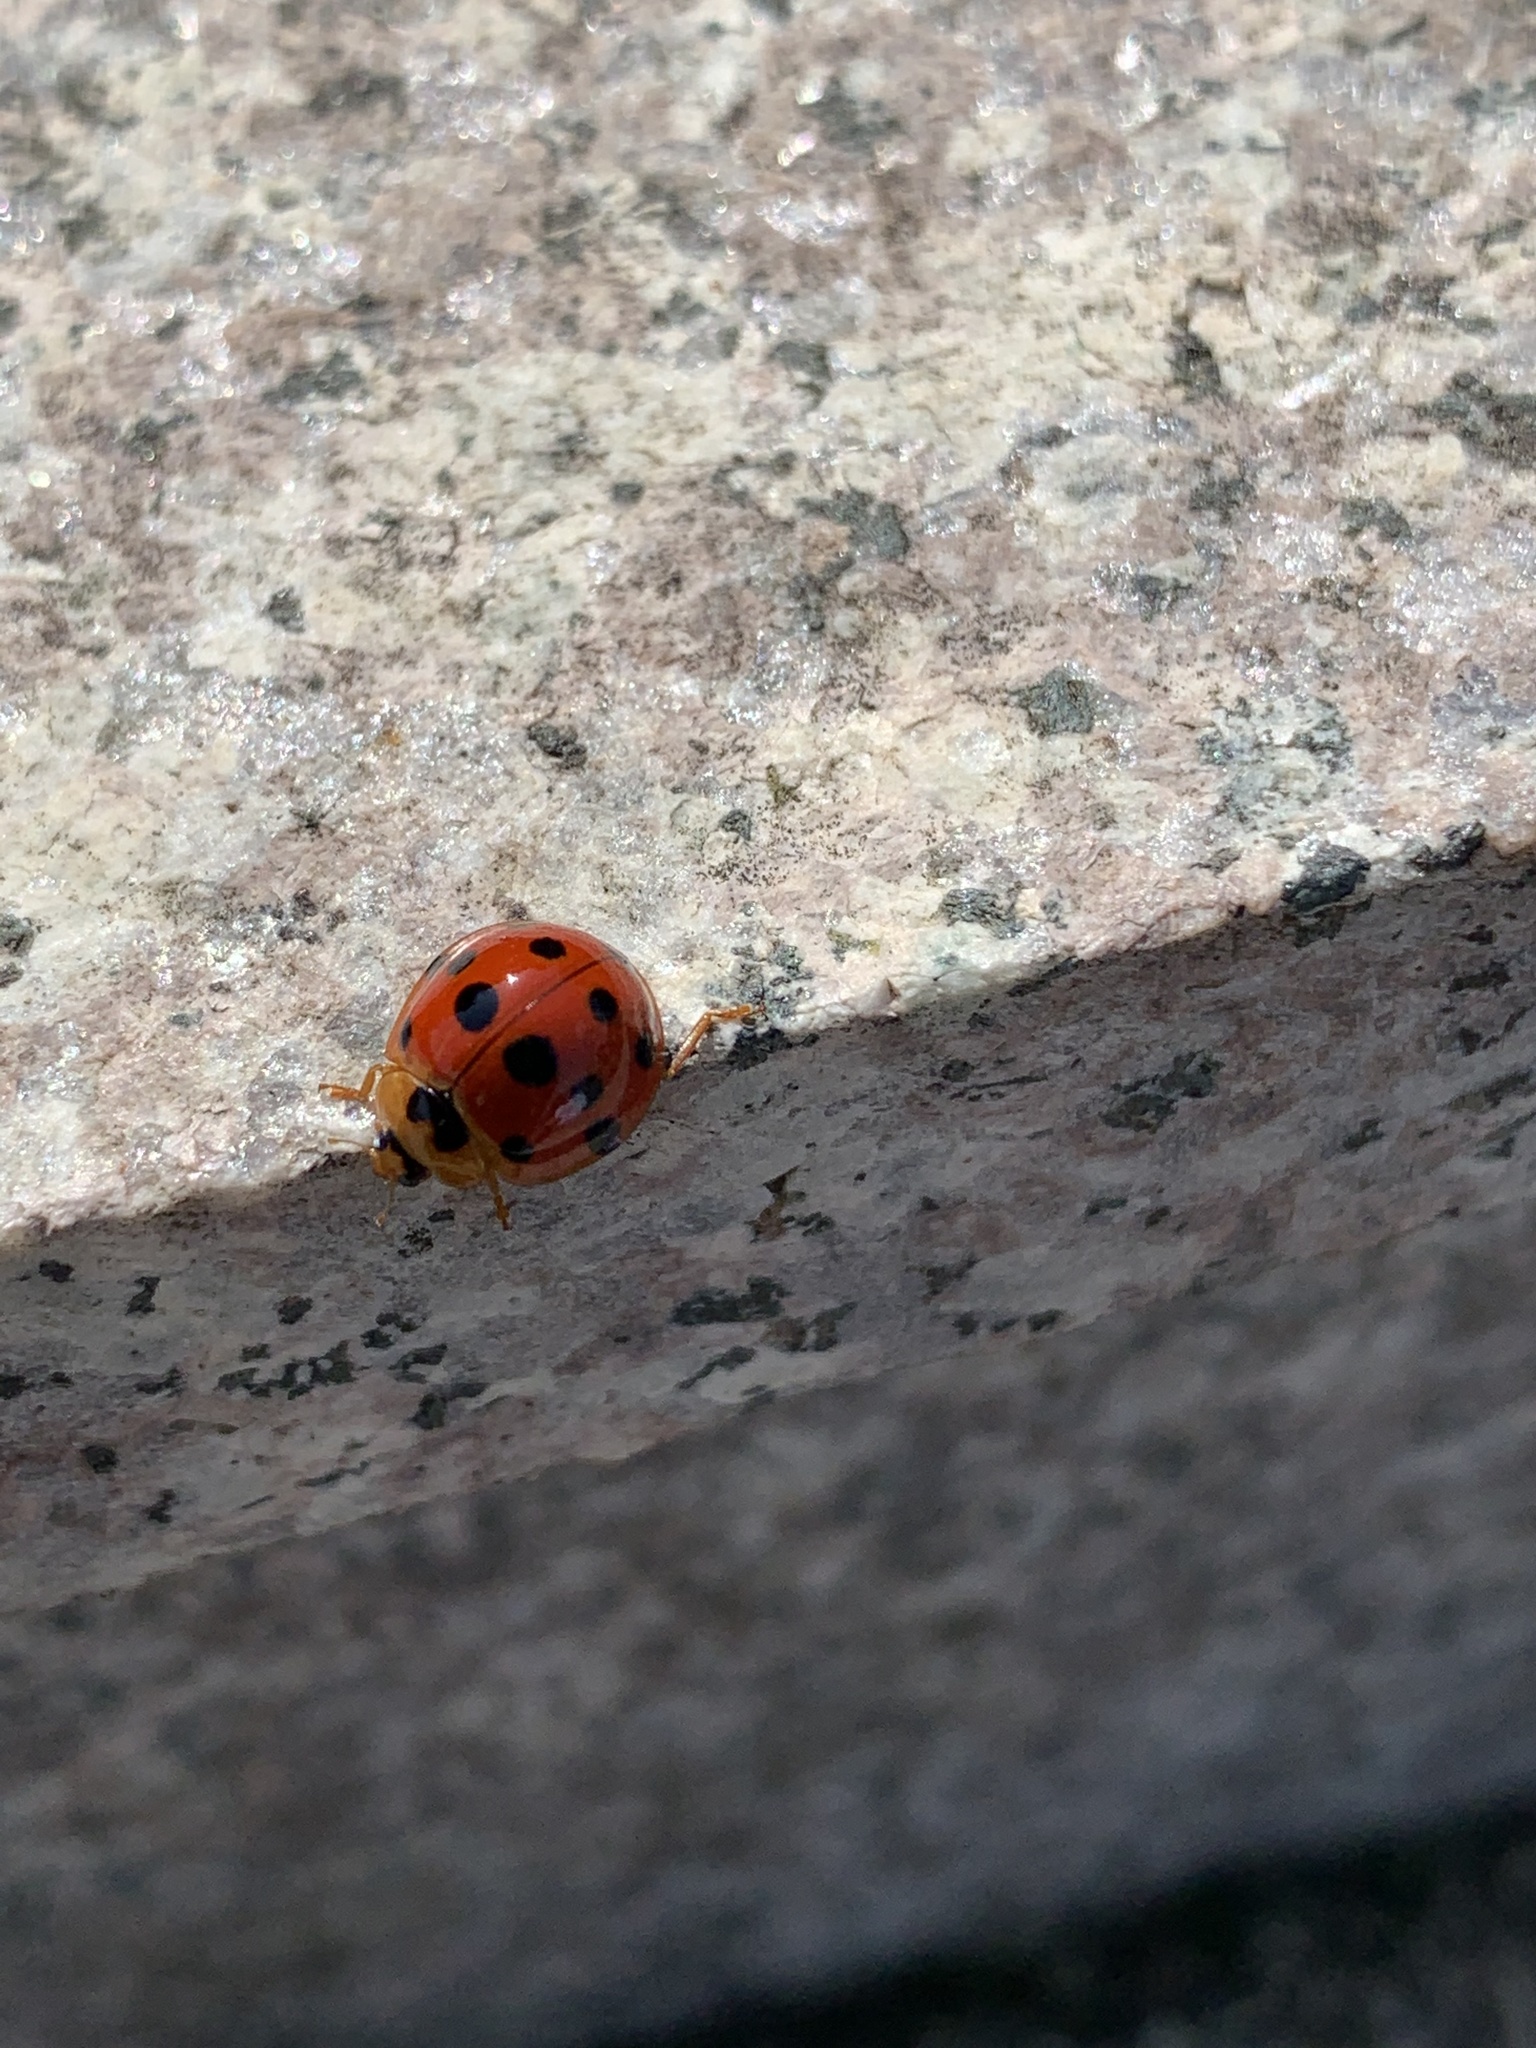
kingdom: Animalia
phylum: Arthropoda
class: Insecta
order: Coleoptera
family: Coccinellidae
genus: Harmonia
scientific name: Harmonia dimidiata
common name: Ladybird beetle
